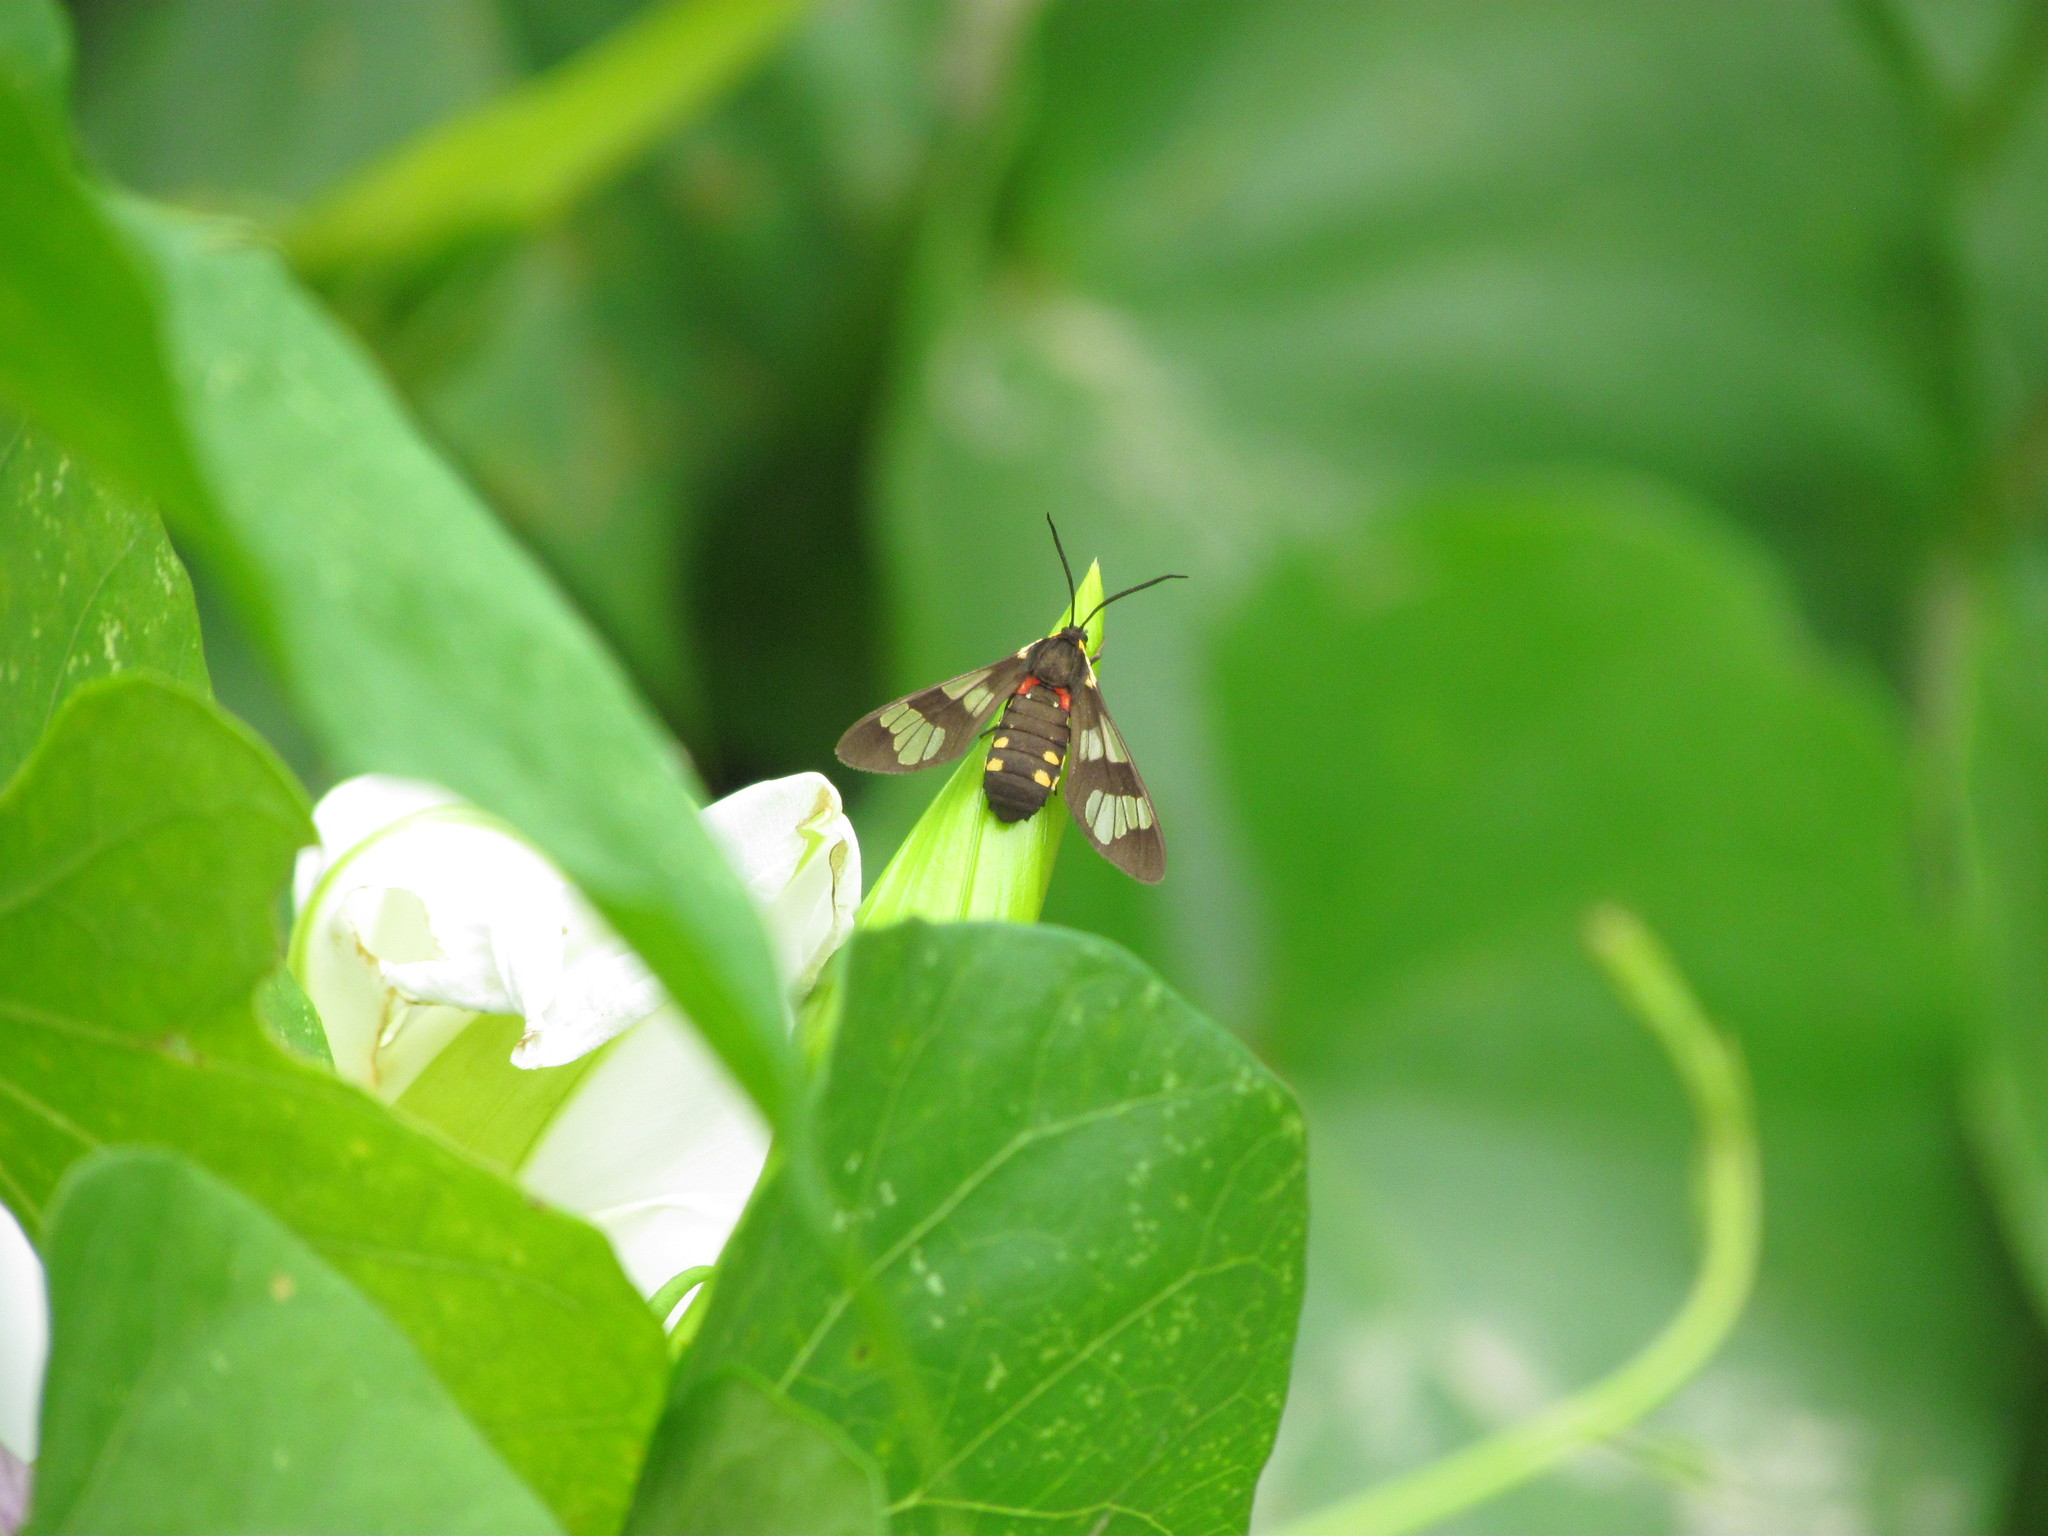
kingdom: Animalia
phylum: Arthropoda
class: Insecta
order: Lepidoptera
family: Erebidae
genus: Eurata
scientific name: Eurata hermione
